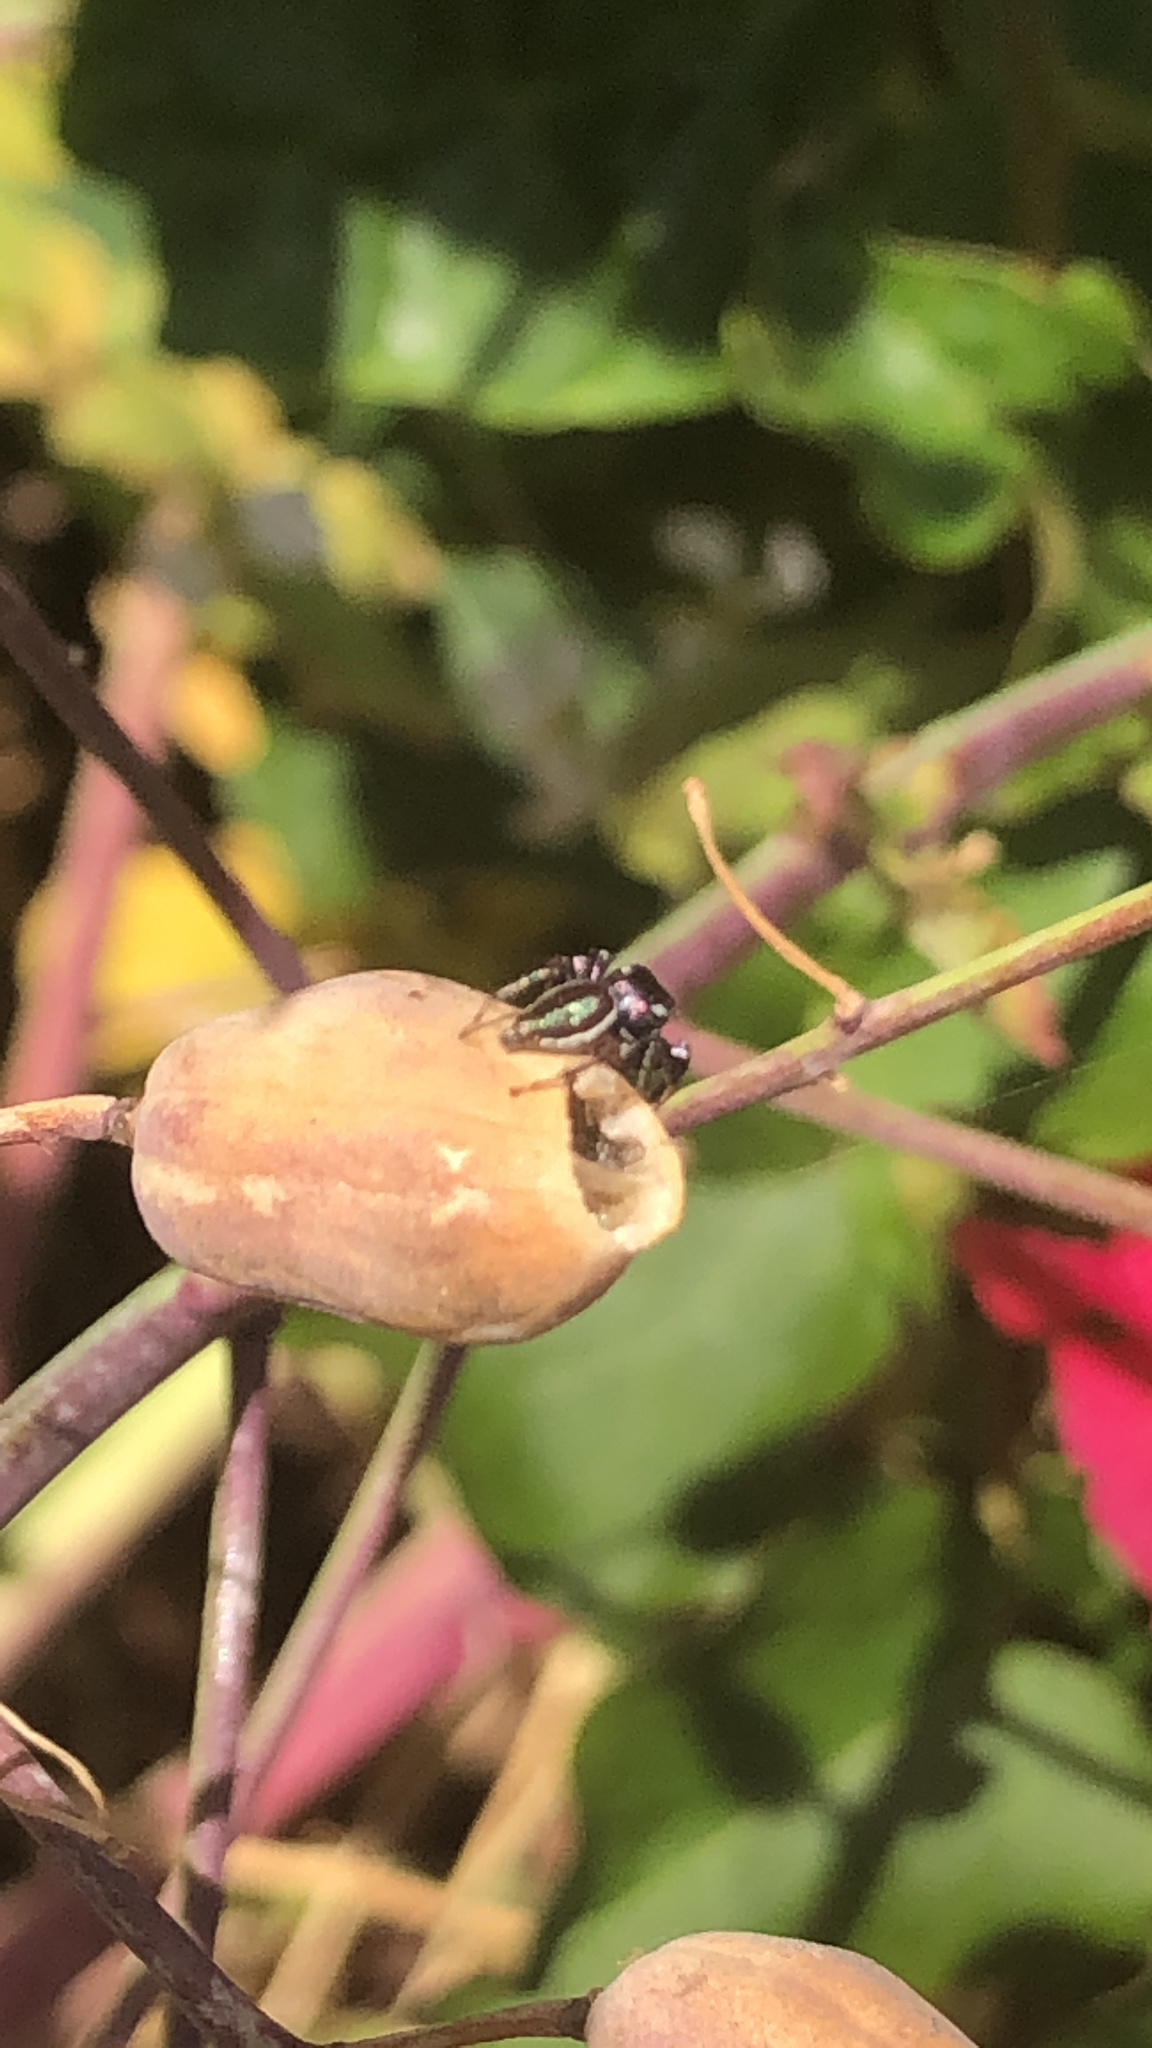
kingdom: Animalia
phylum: Arthropoda
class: Arachnida
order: Araneae
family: Salticidae
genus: Messua
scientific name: Messua limbata
